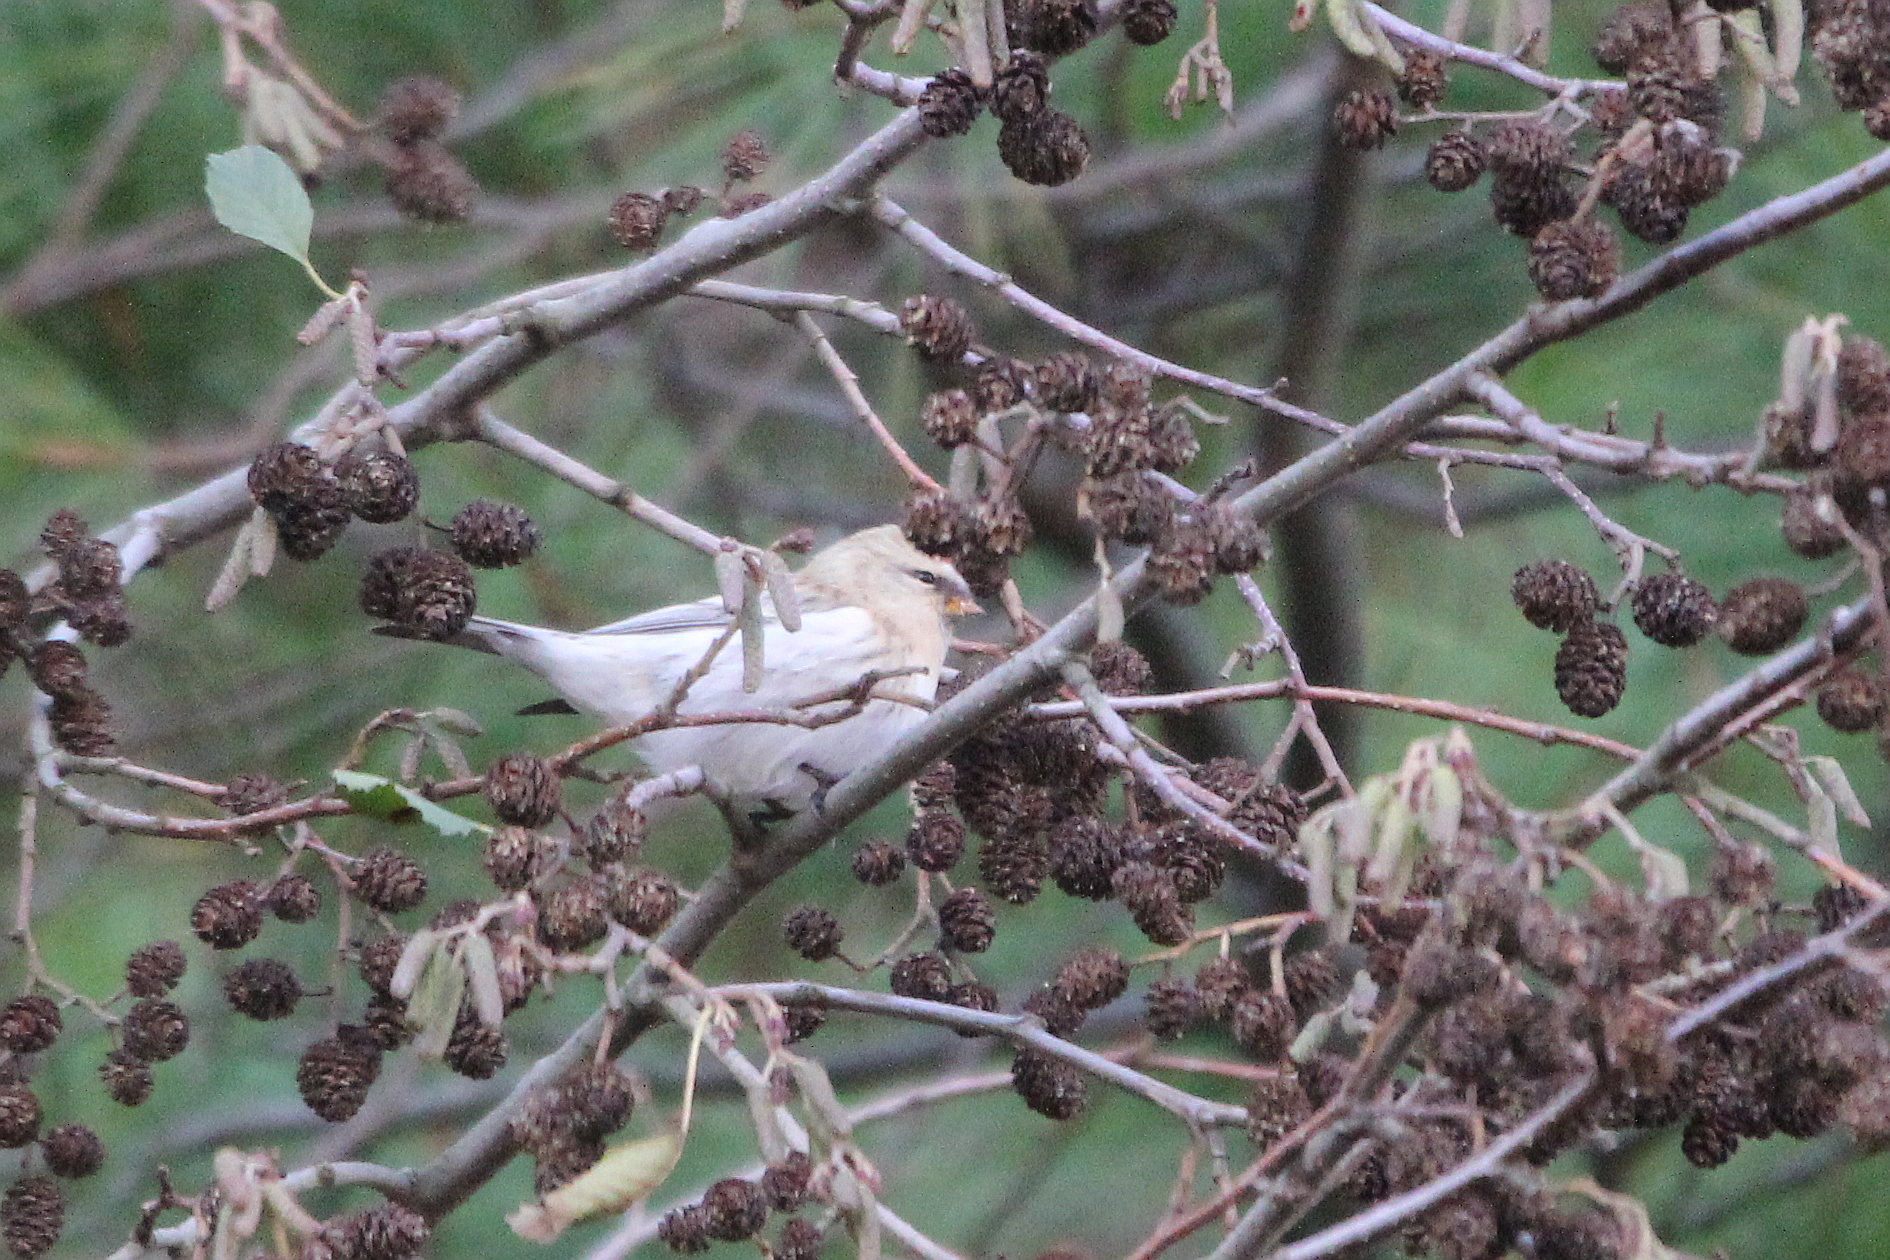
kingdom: Animalia
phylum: Chordata
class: Aves
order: Passeriformes
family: Fringillidae
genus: Acanthis
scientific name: Acanthis hornemanni
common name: Arctic redpoll
